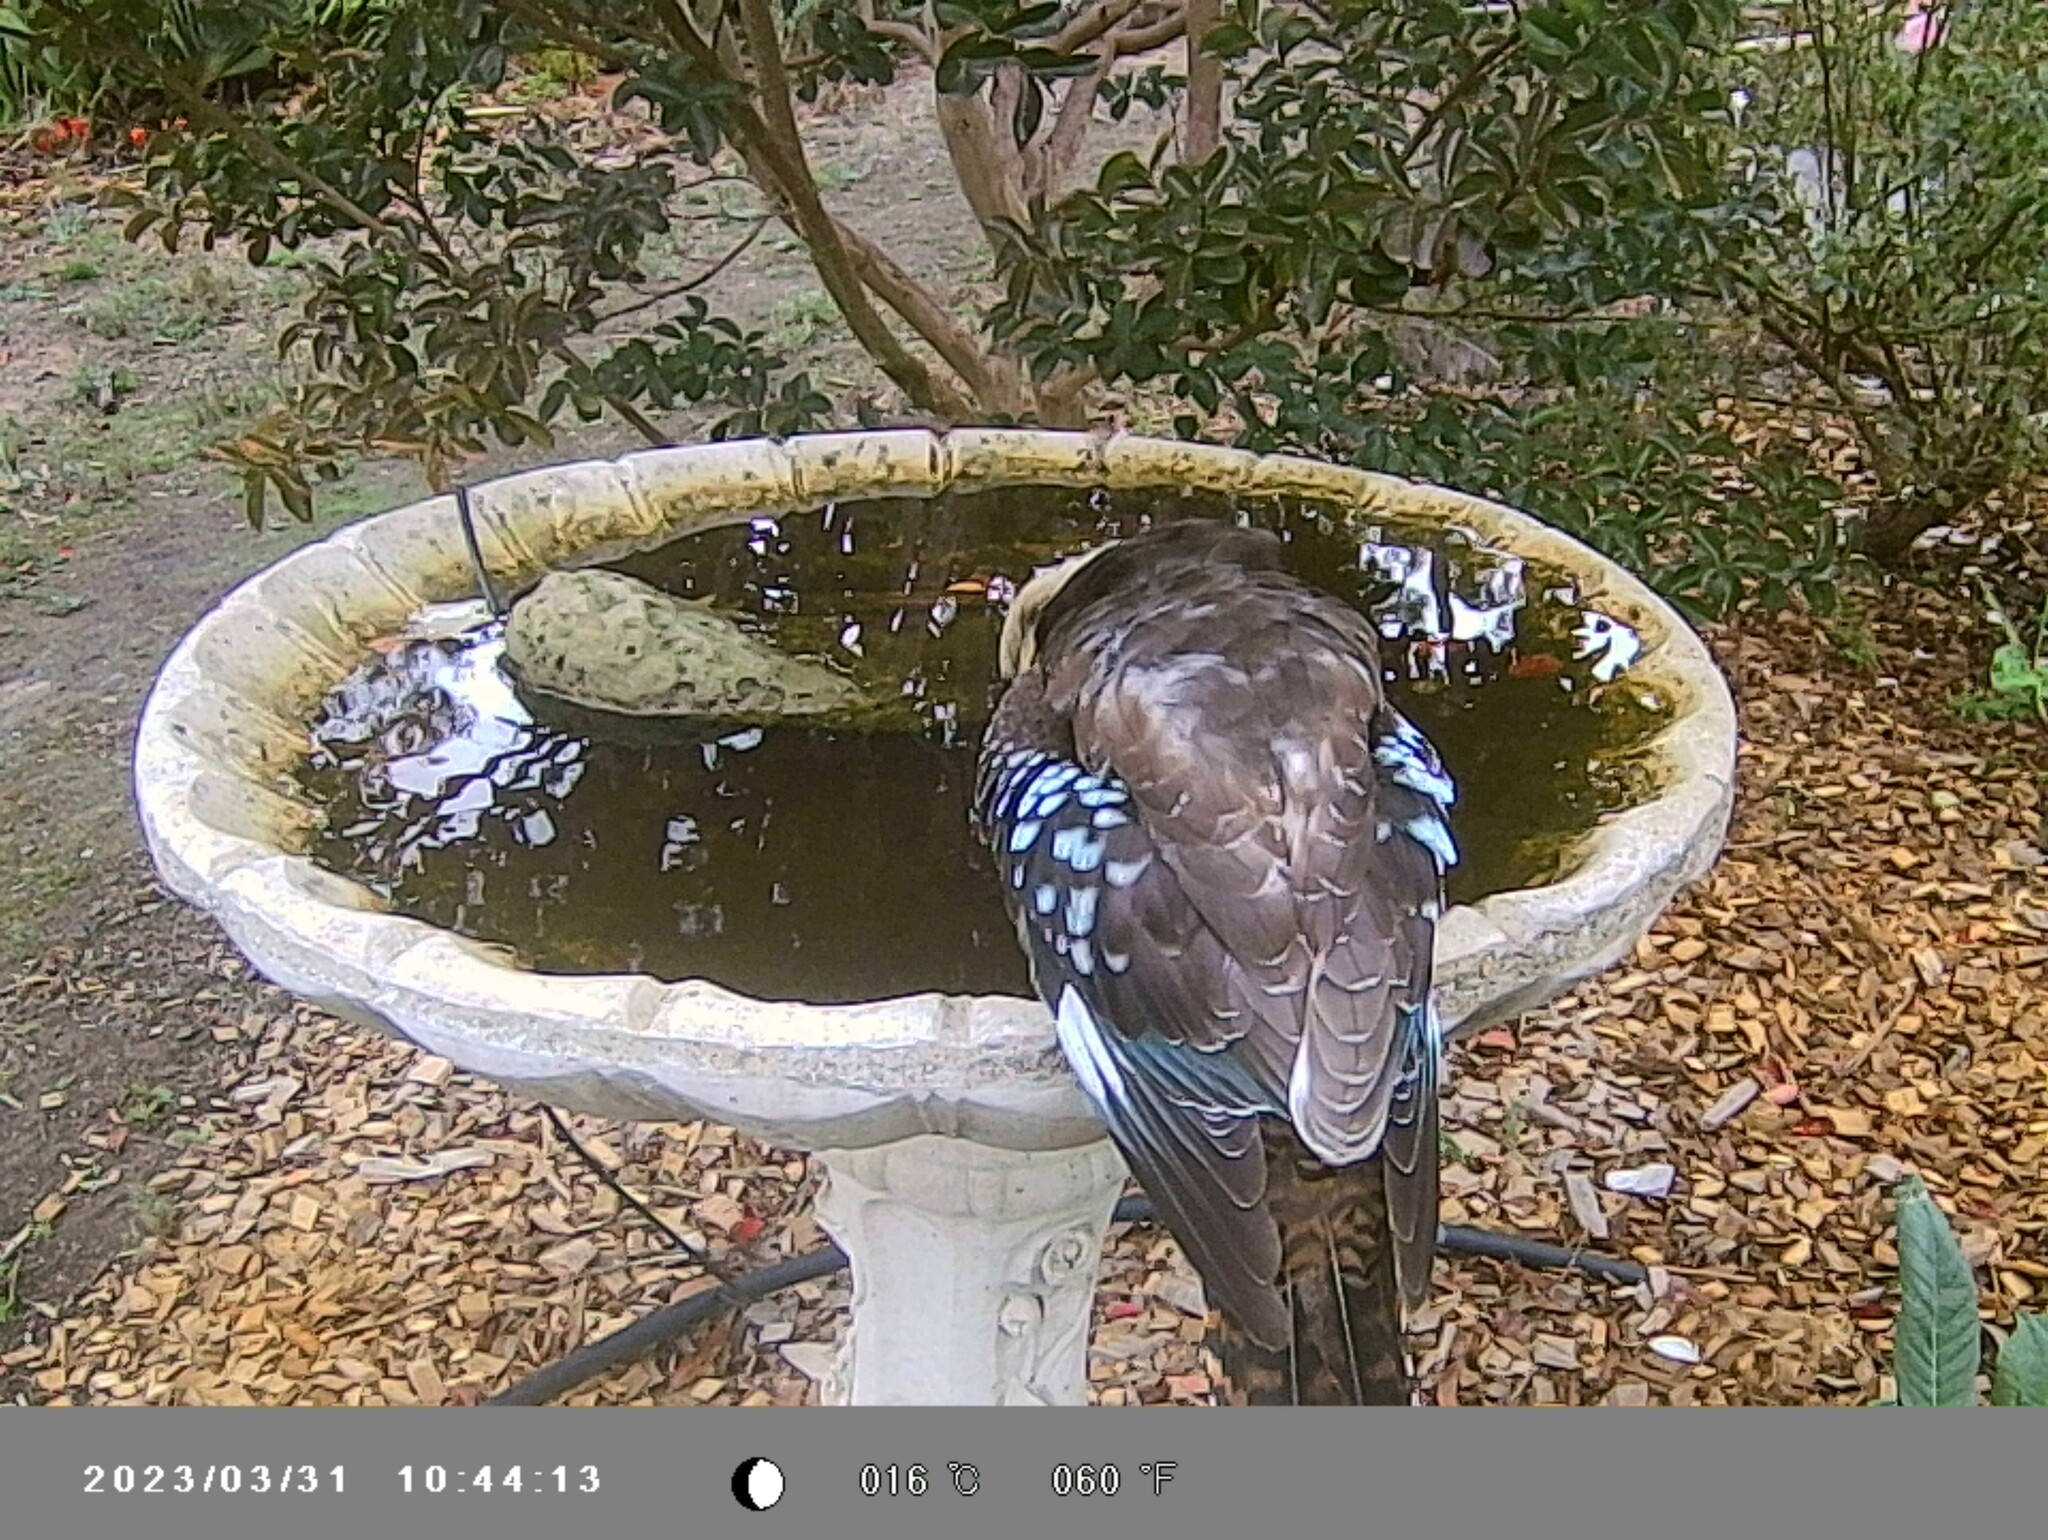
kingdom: Animalia
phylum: Chordata
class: Aves
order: Coraciiformes
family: Alcedinidae
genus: Dacelo
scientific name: Dacelo novaeguineae
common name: Laughing kookaburra
